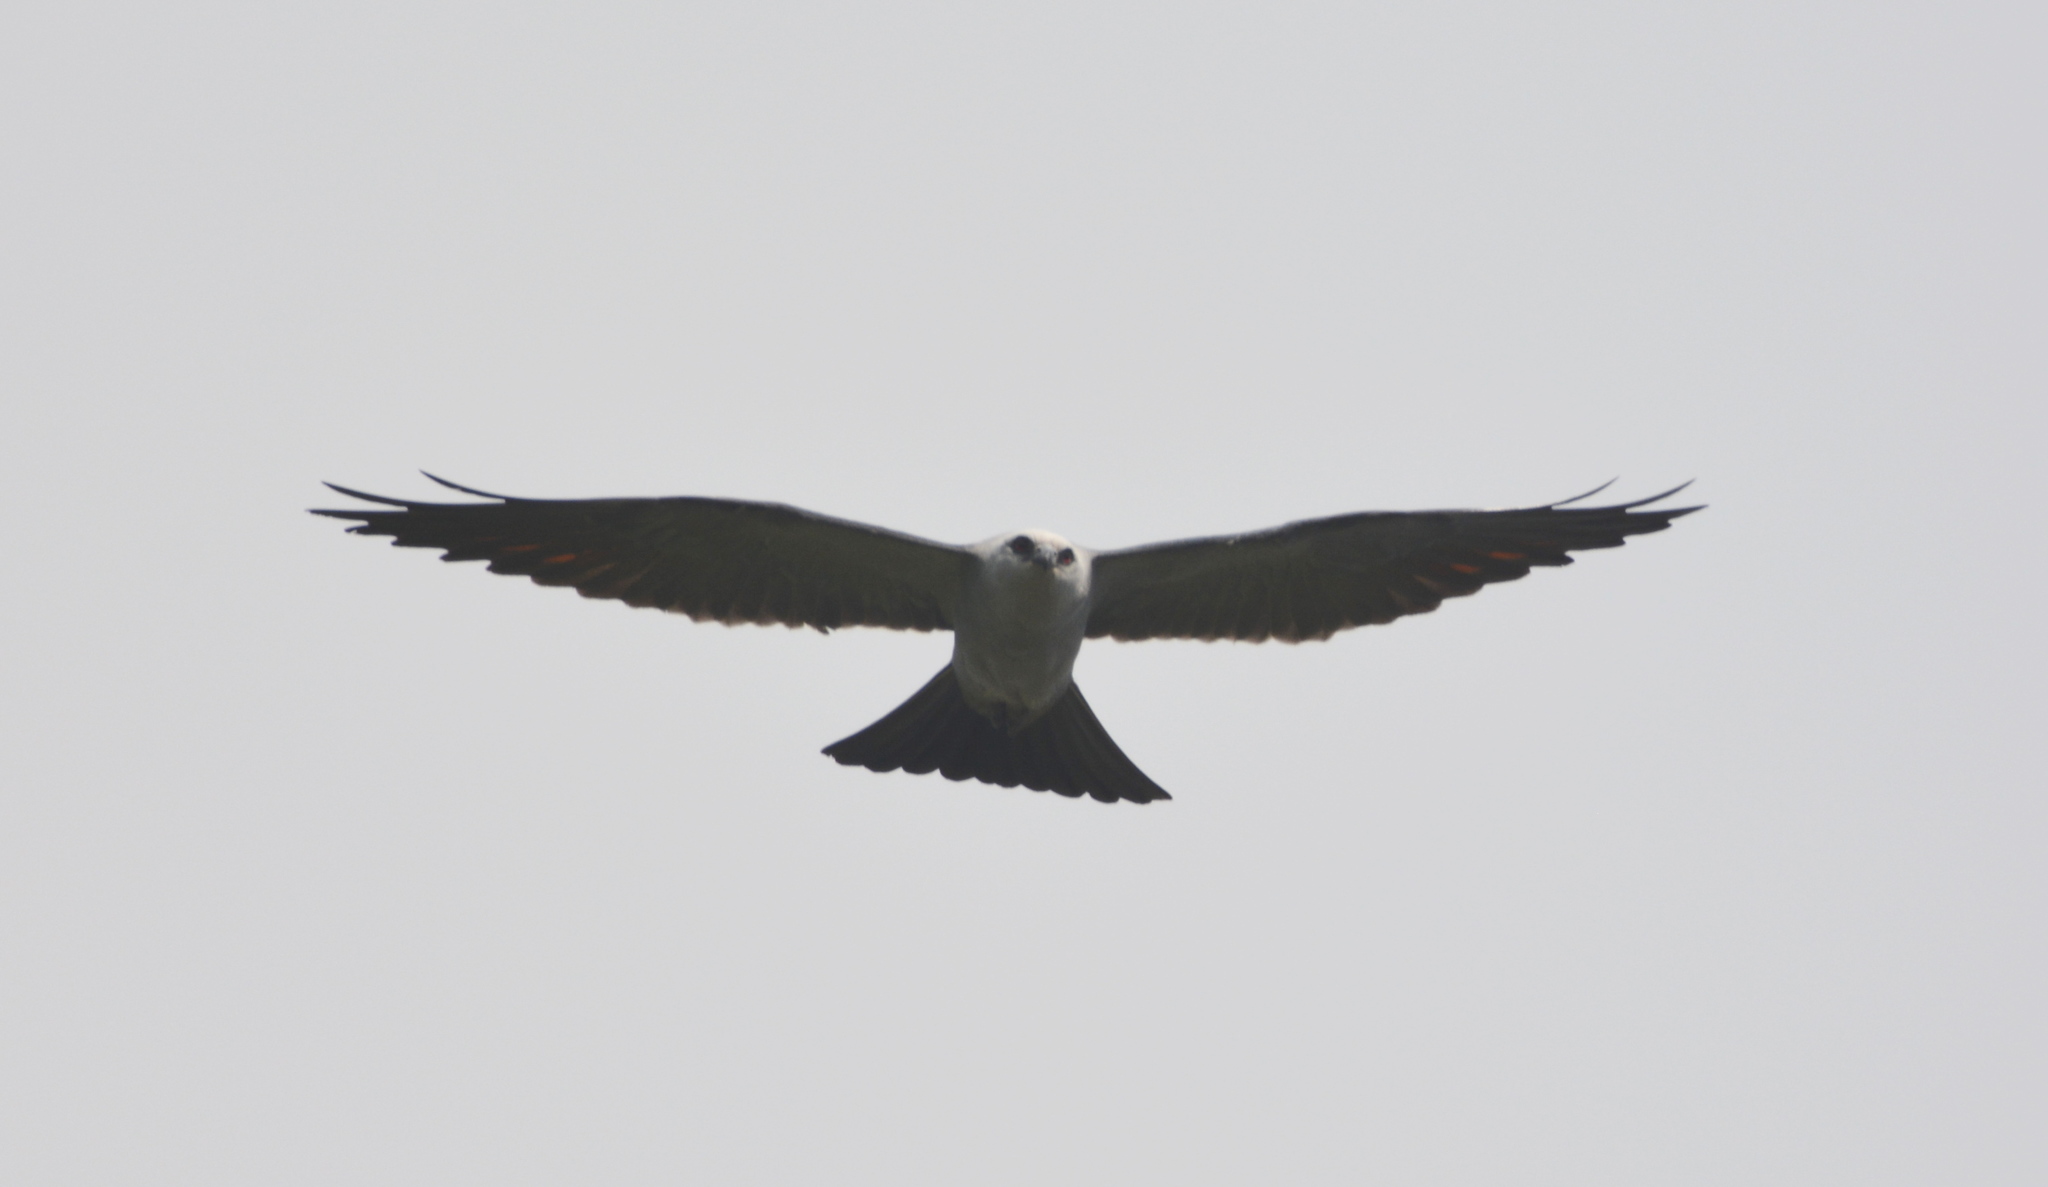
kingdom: Animalia
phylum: Chordata
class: Aves
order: Accipitriformes
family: Accipitridae
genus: Ictinia
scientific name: Ictinia mississippiensis
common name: Mississippi kite
